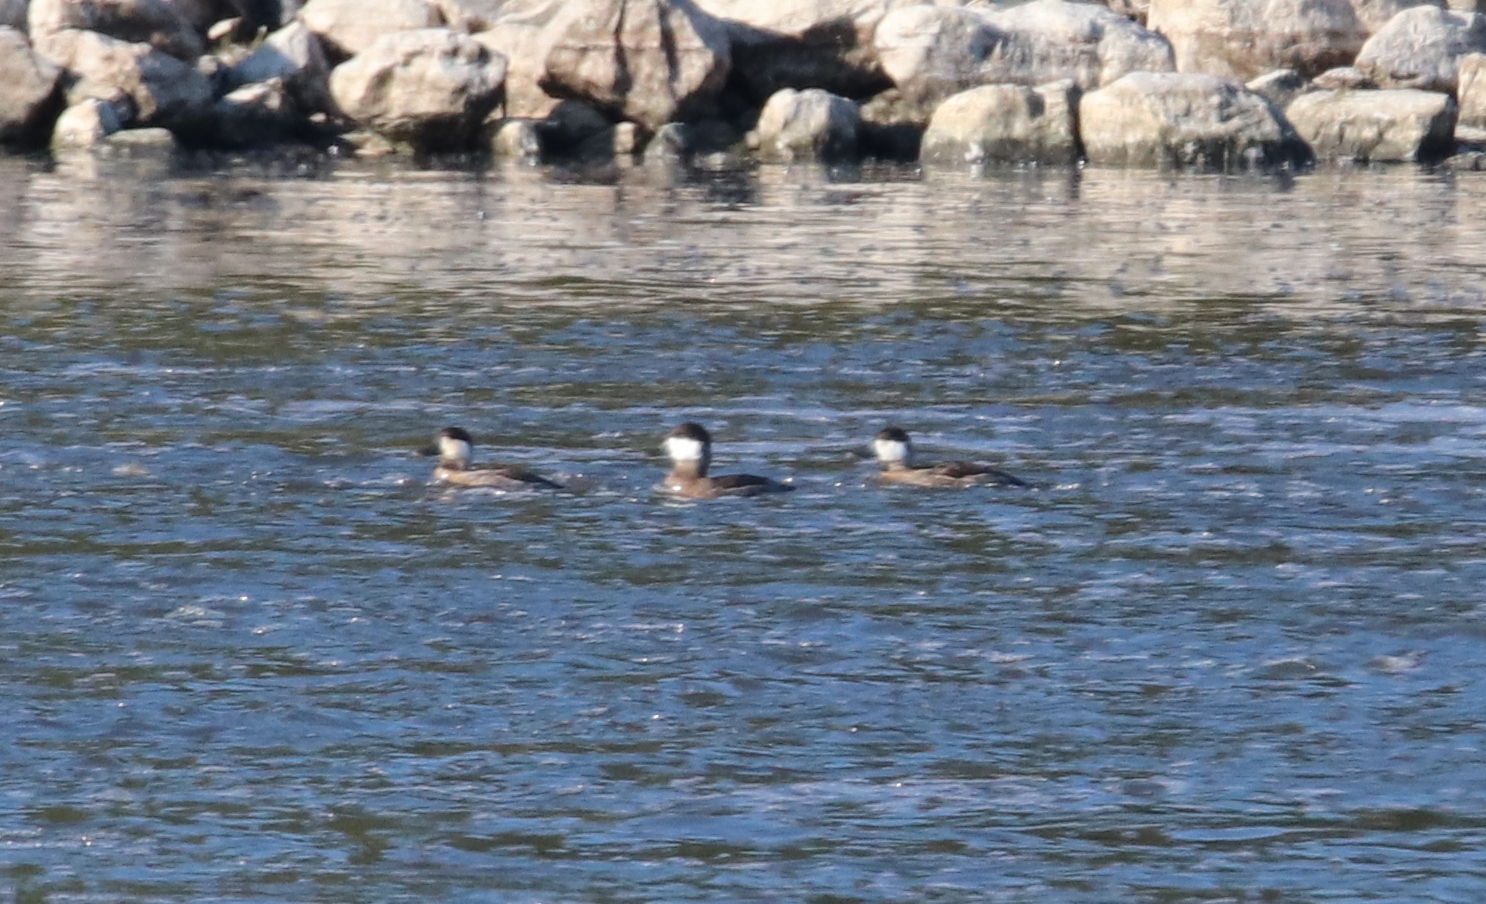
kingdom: Animalia
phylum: Chordata
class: Aves
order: Anseriformes
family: Anatidae
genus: Oxyura
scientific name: Oxyura jamaicensis
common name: Ruddy duck
